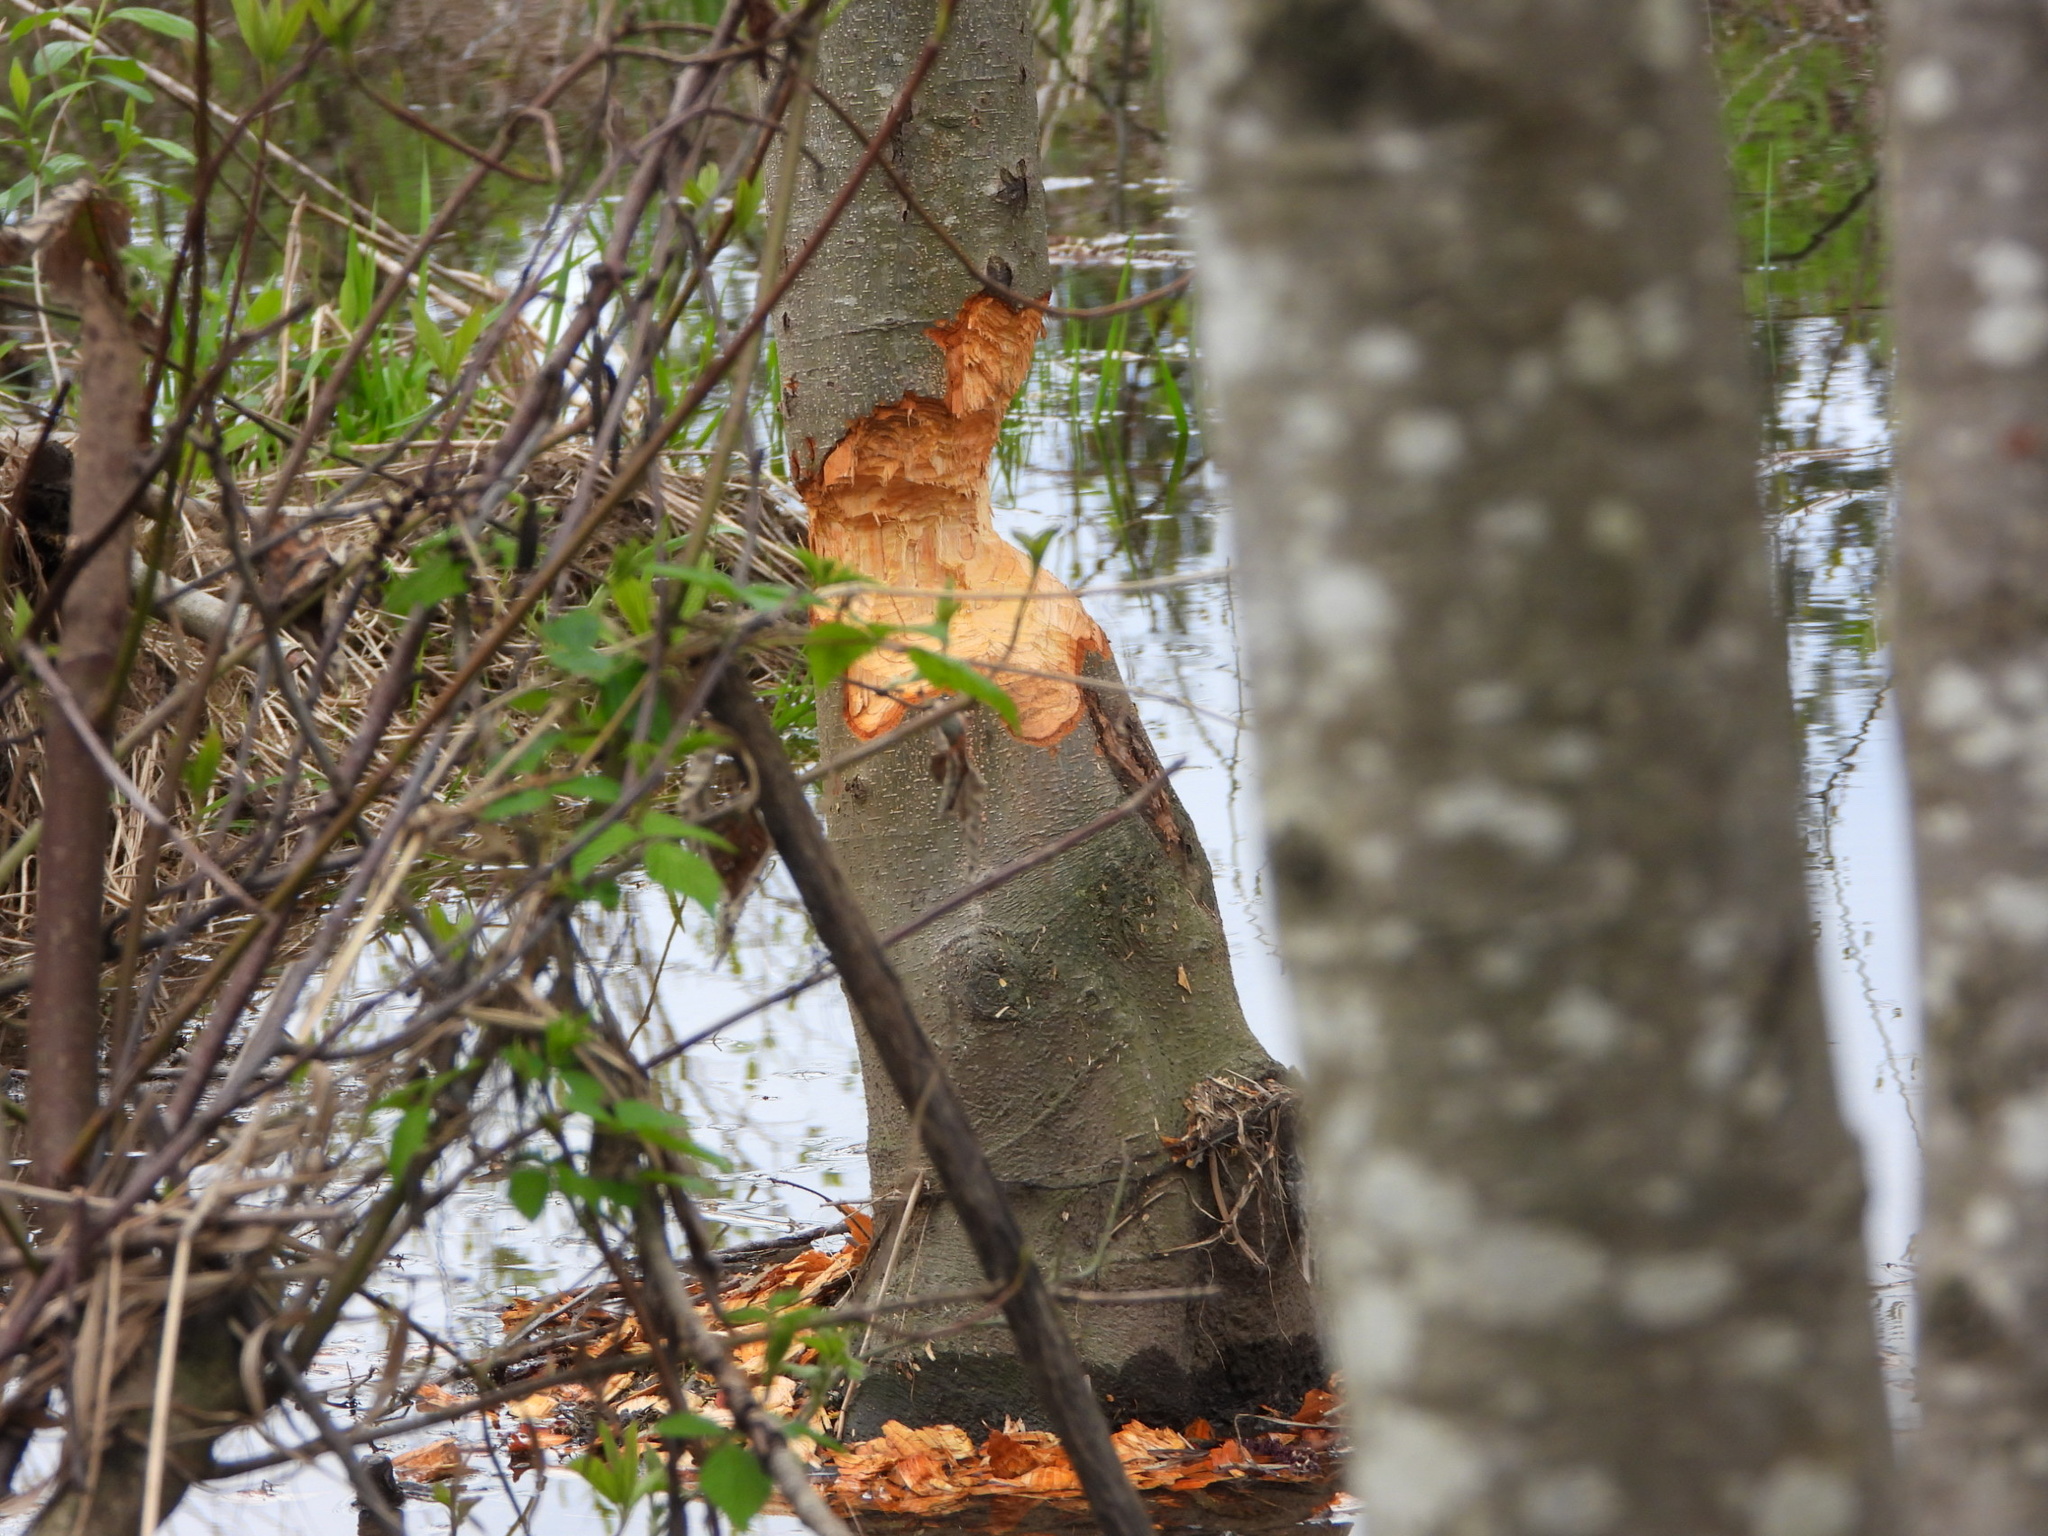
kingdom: Animalia
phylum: Chordata
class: Mammalia
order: Rodentia
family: Castoridae
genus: Castor
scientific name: Castor canadensis
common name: American beaver
